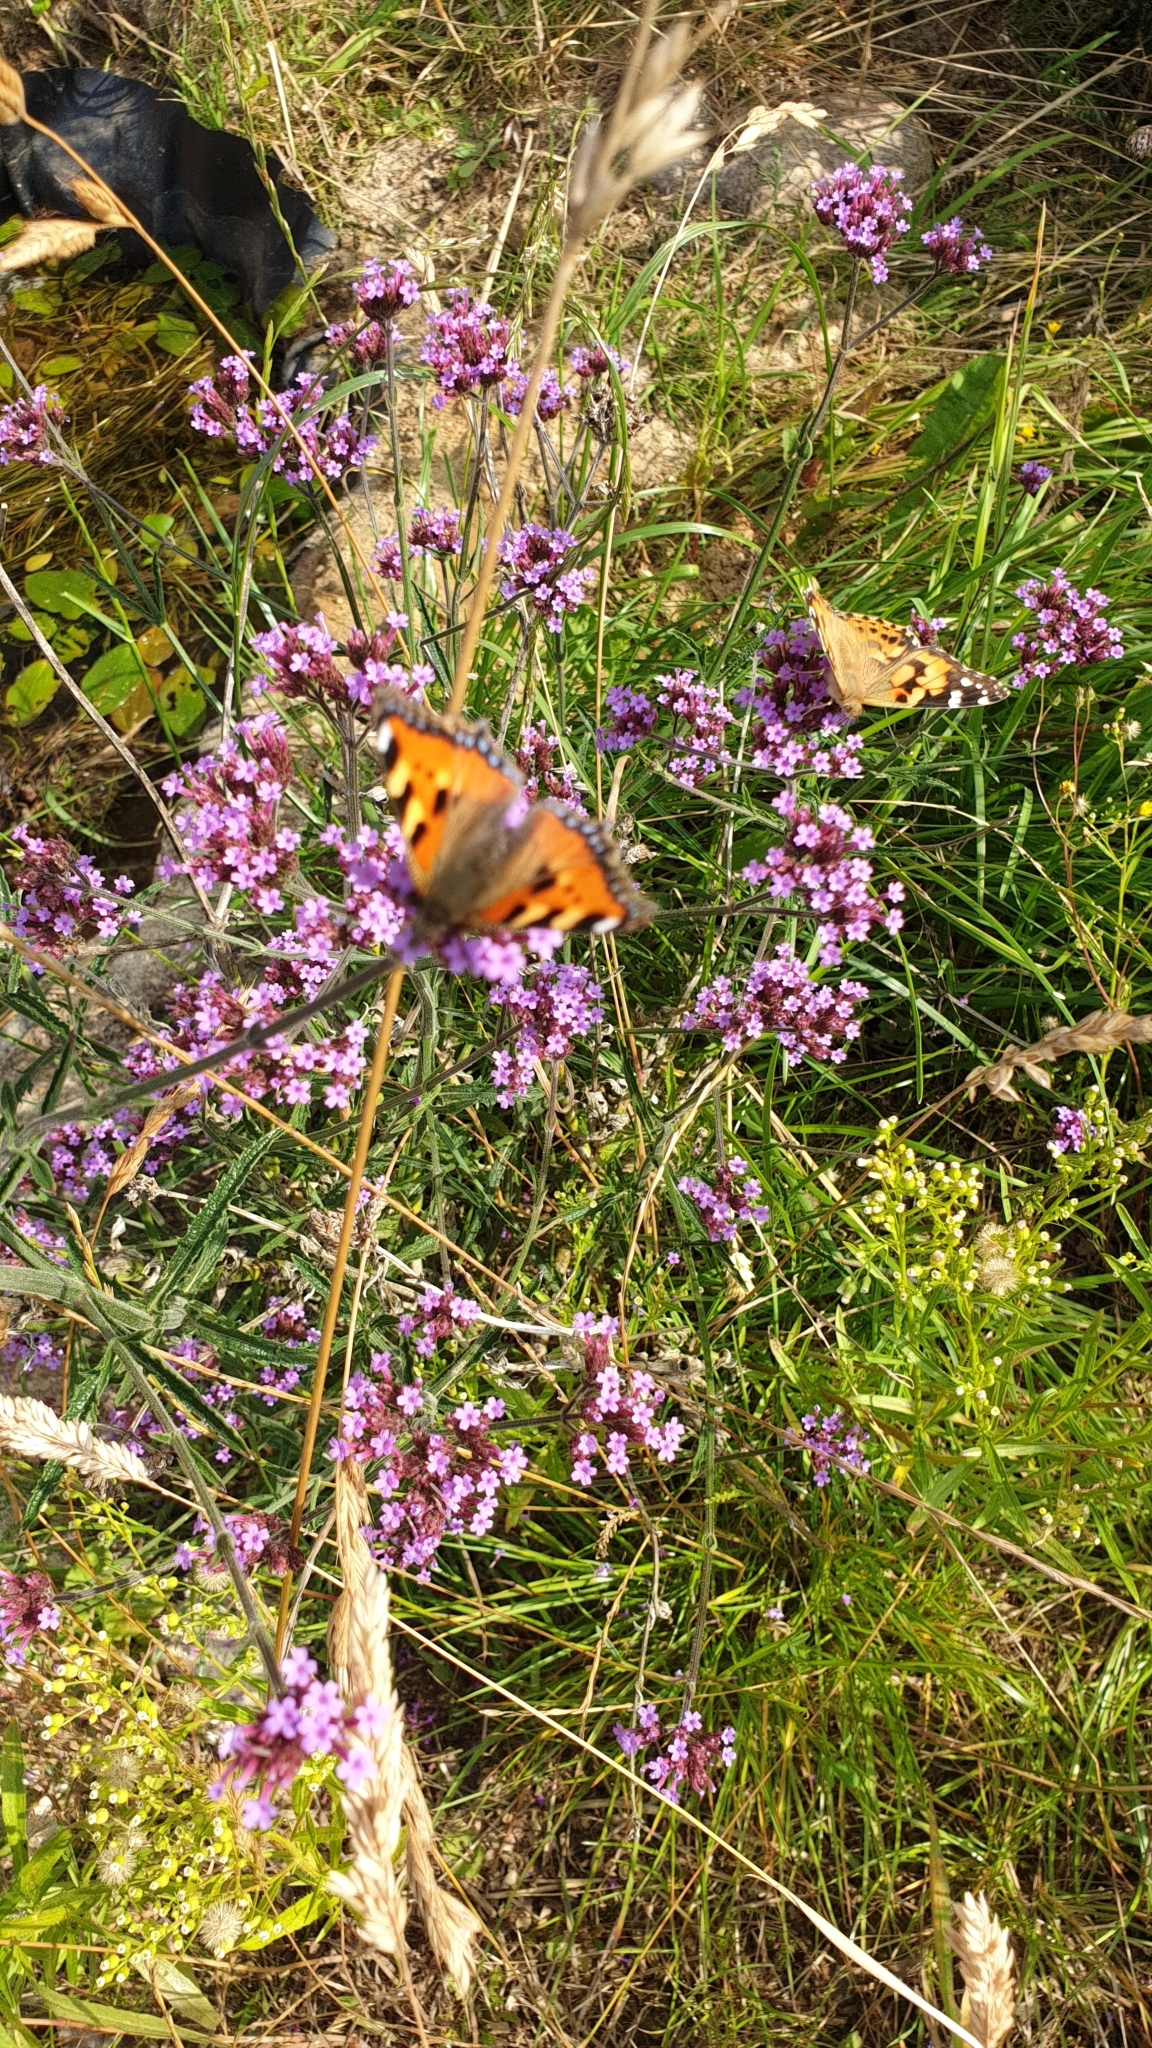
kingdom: Animalia
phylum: Arthropoda
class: Insecta
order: Lepidoptera
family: Nymphalidae
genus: Aglais
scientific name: Aglais urticae
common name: Small tortoiseshell
